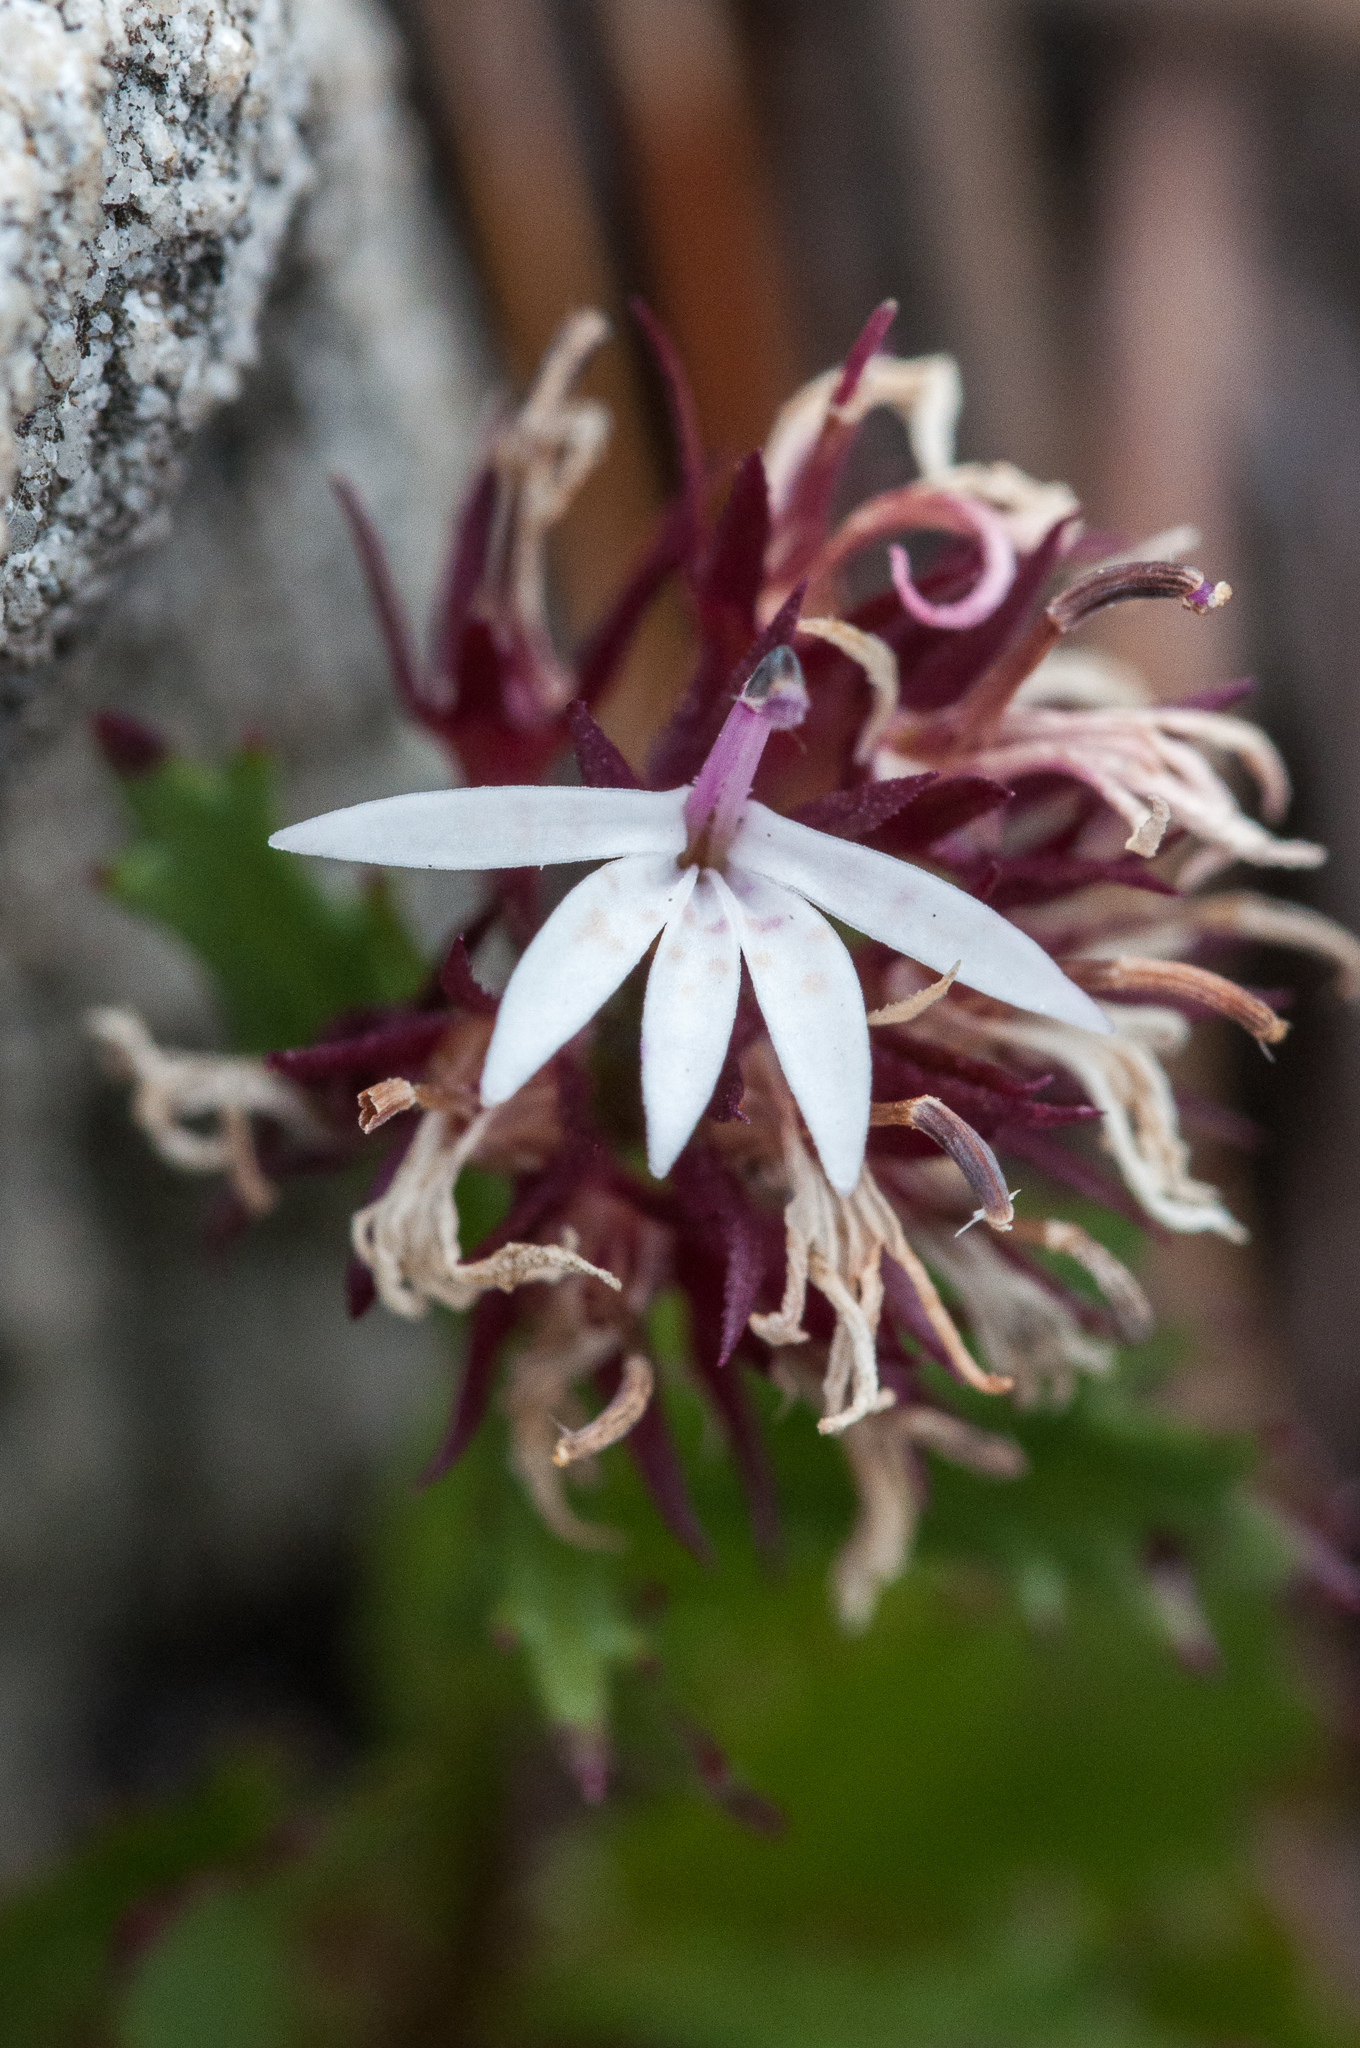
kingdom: Plantae
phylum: Tracheophyta
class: Magnoliopsida
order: Asterales
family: Campanulaceae
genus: Lobelia
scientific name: Lobelia jasionoides
